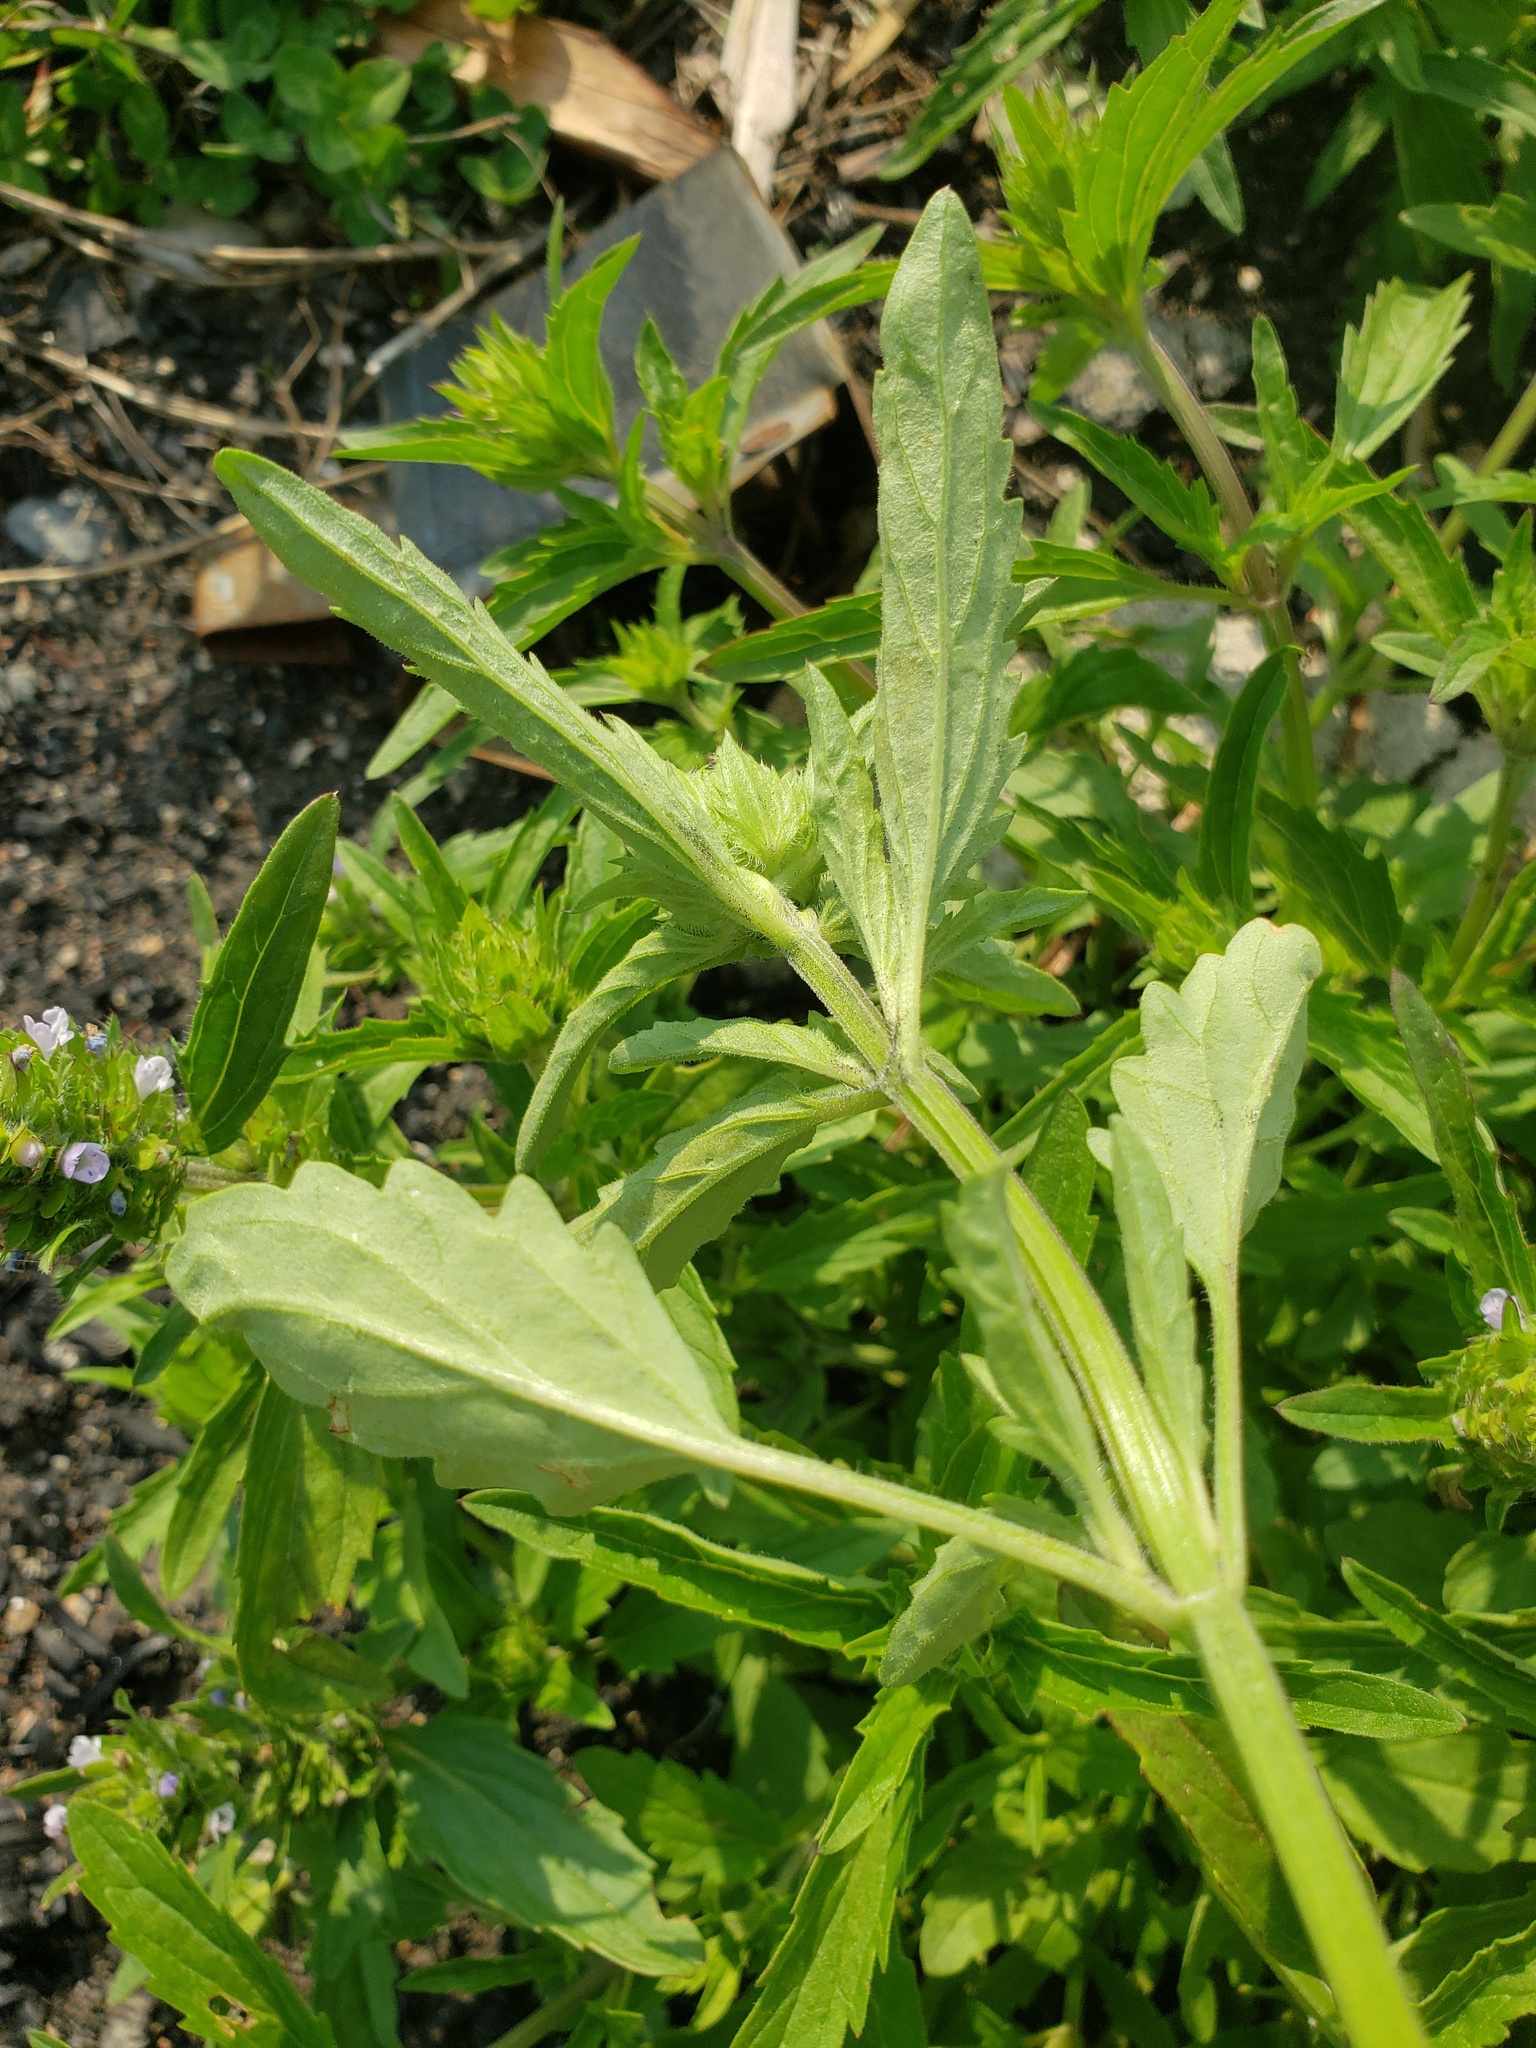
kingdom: Plantae
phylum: Tracheophyta
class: Magnoliopsida
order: Lamiales
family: Lamiaceae
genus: Dracocephalum
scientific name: Dracocephalum parviflorum
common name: American dragonhead
